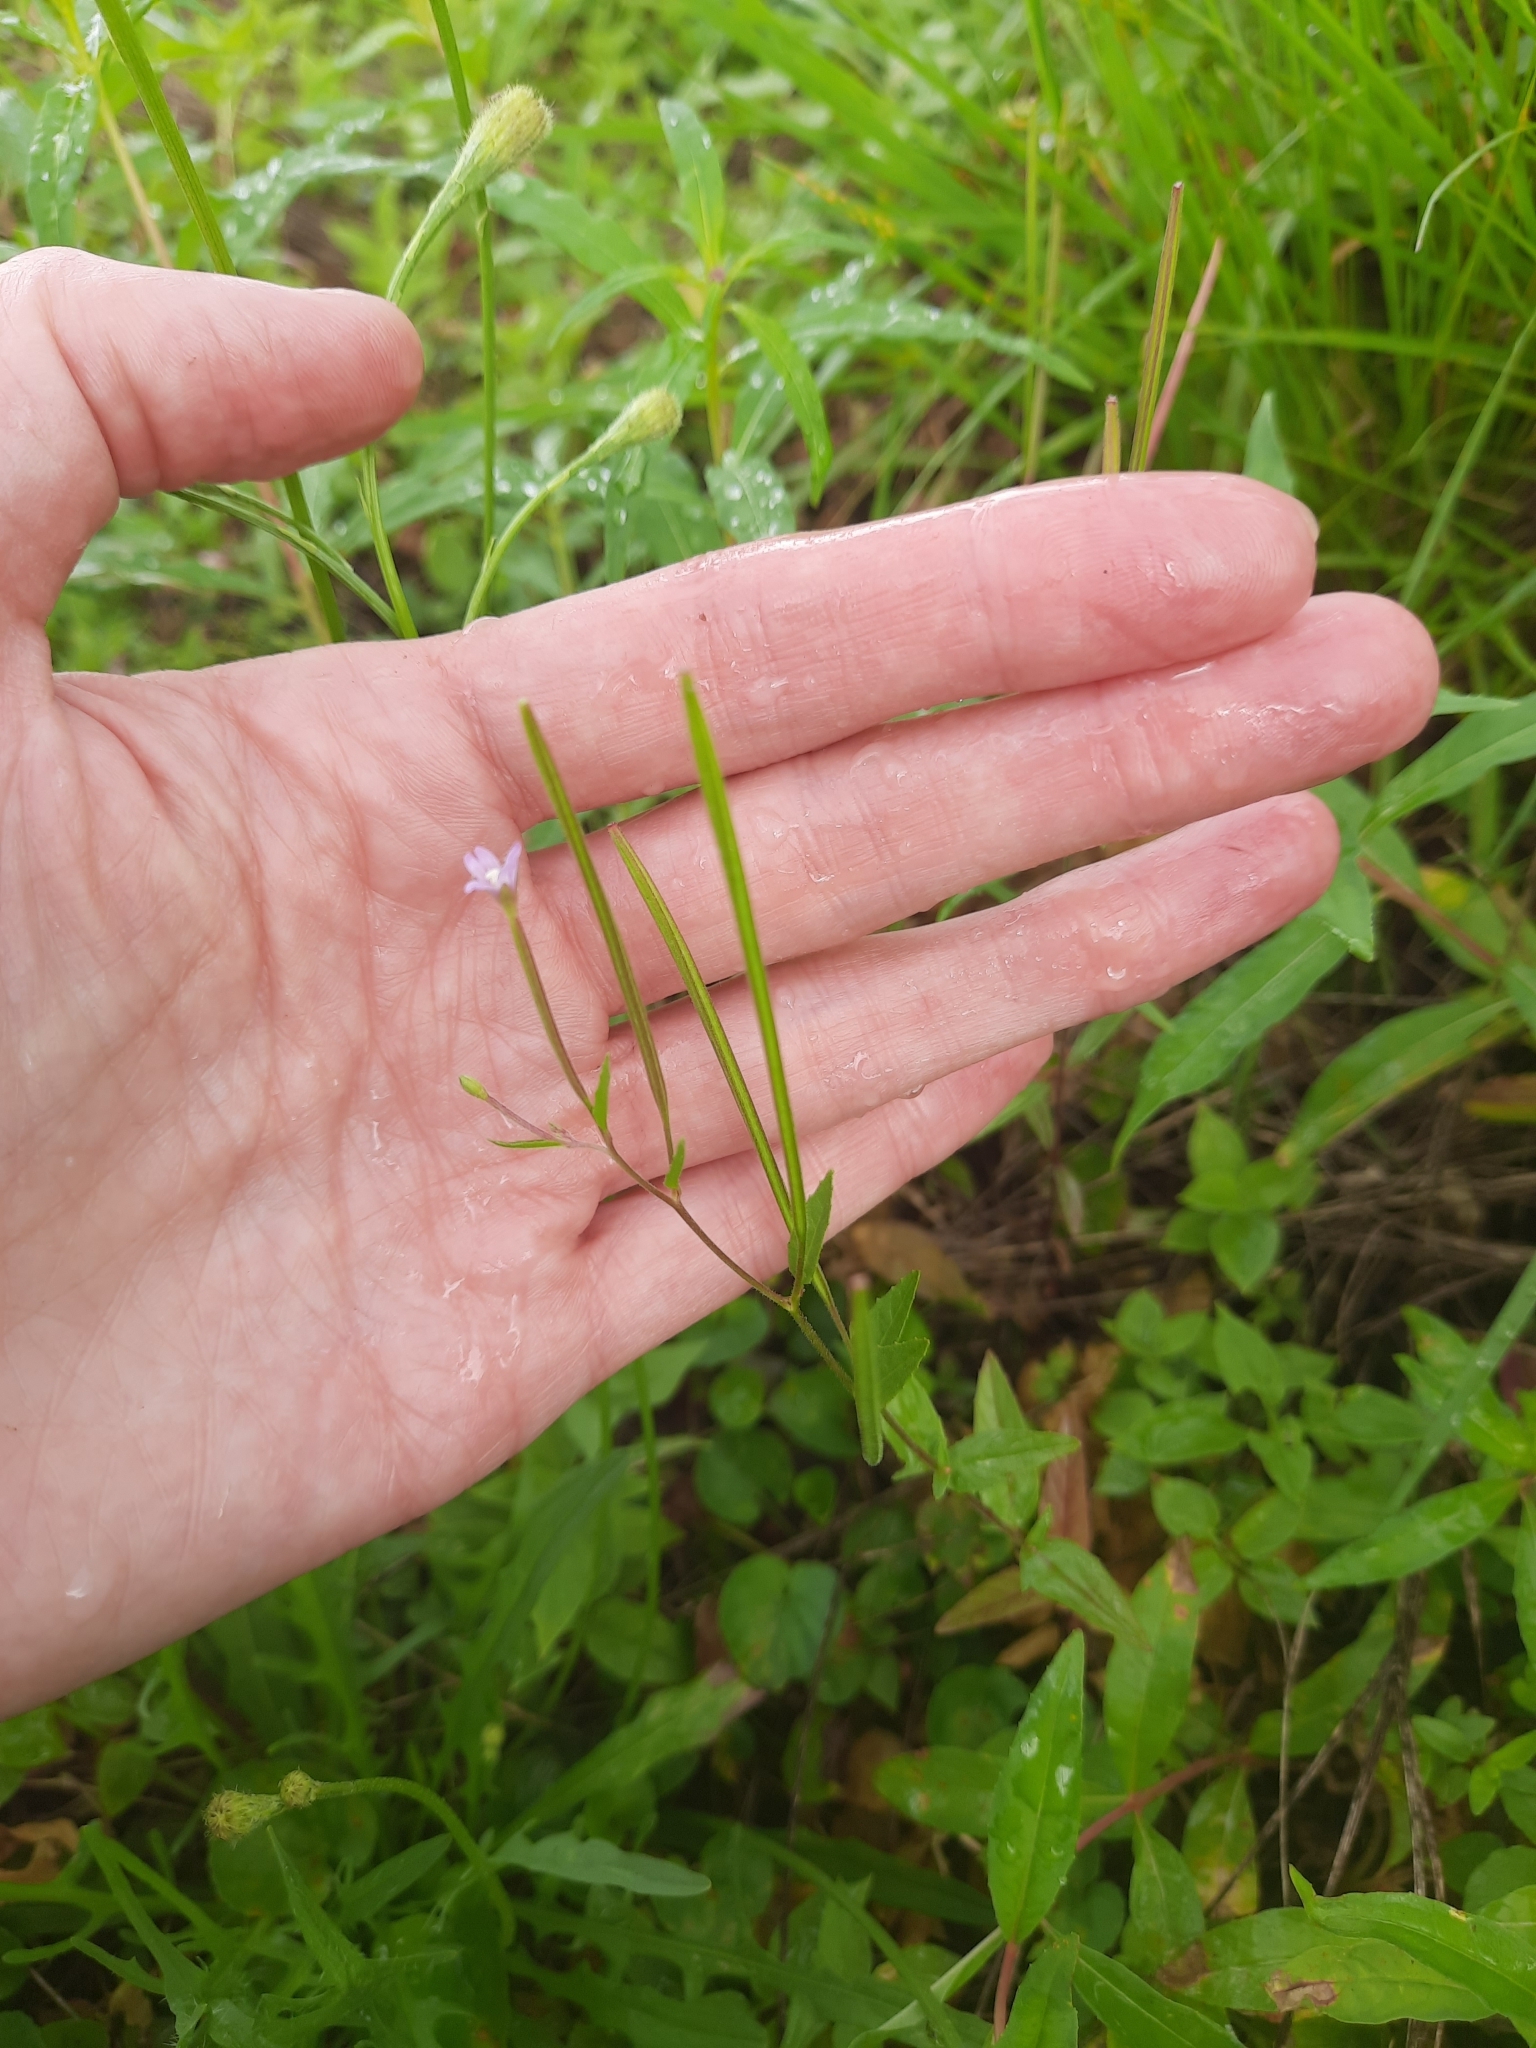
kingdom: Plantae
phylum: Tracheophyta
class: Magnoliopsida
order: Myrtales
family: Onagraceae
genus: Epilobium
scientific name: Epilobium ciliatum
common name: American willowherb
